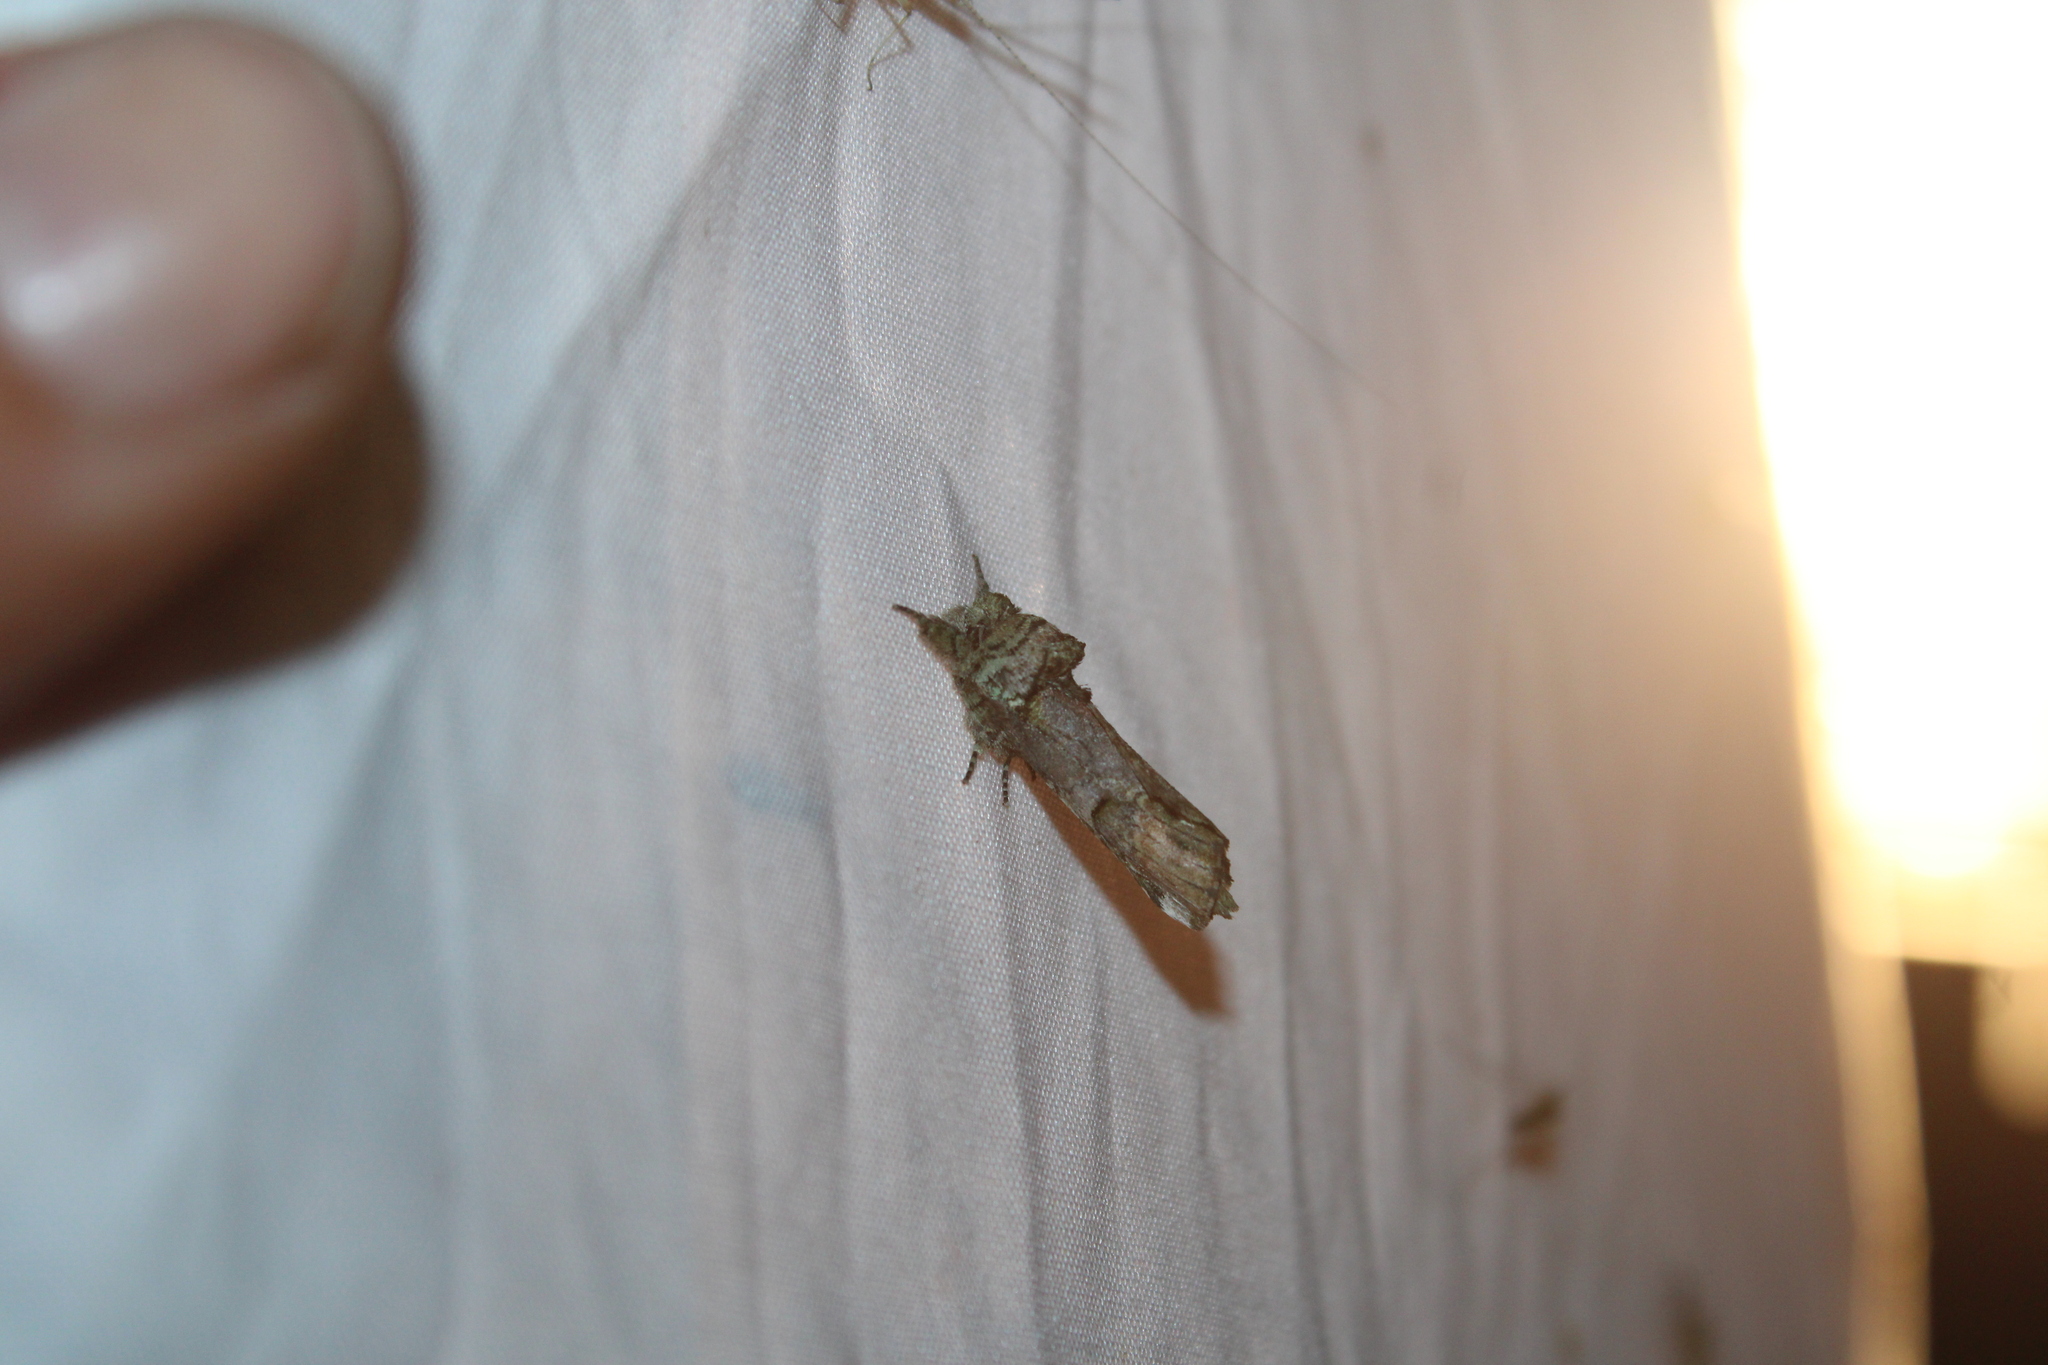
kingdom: Animalia
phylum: Arthropoda
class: Insecta
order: Lepidoptera
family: Notodontidae
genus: Schizura
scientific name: Schizura
